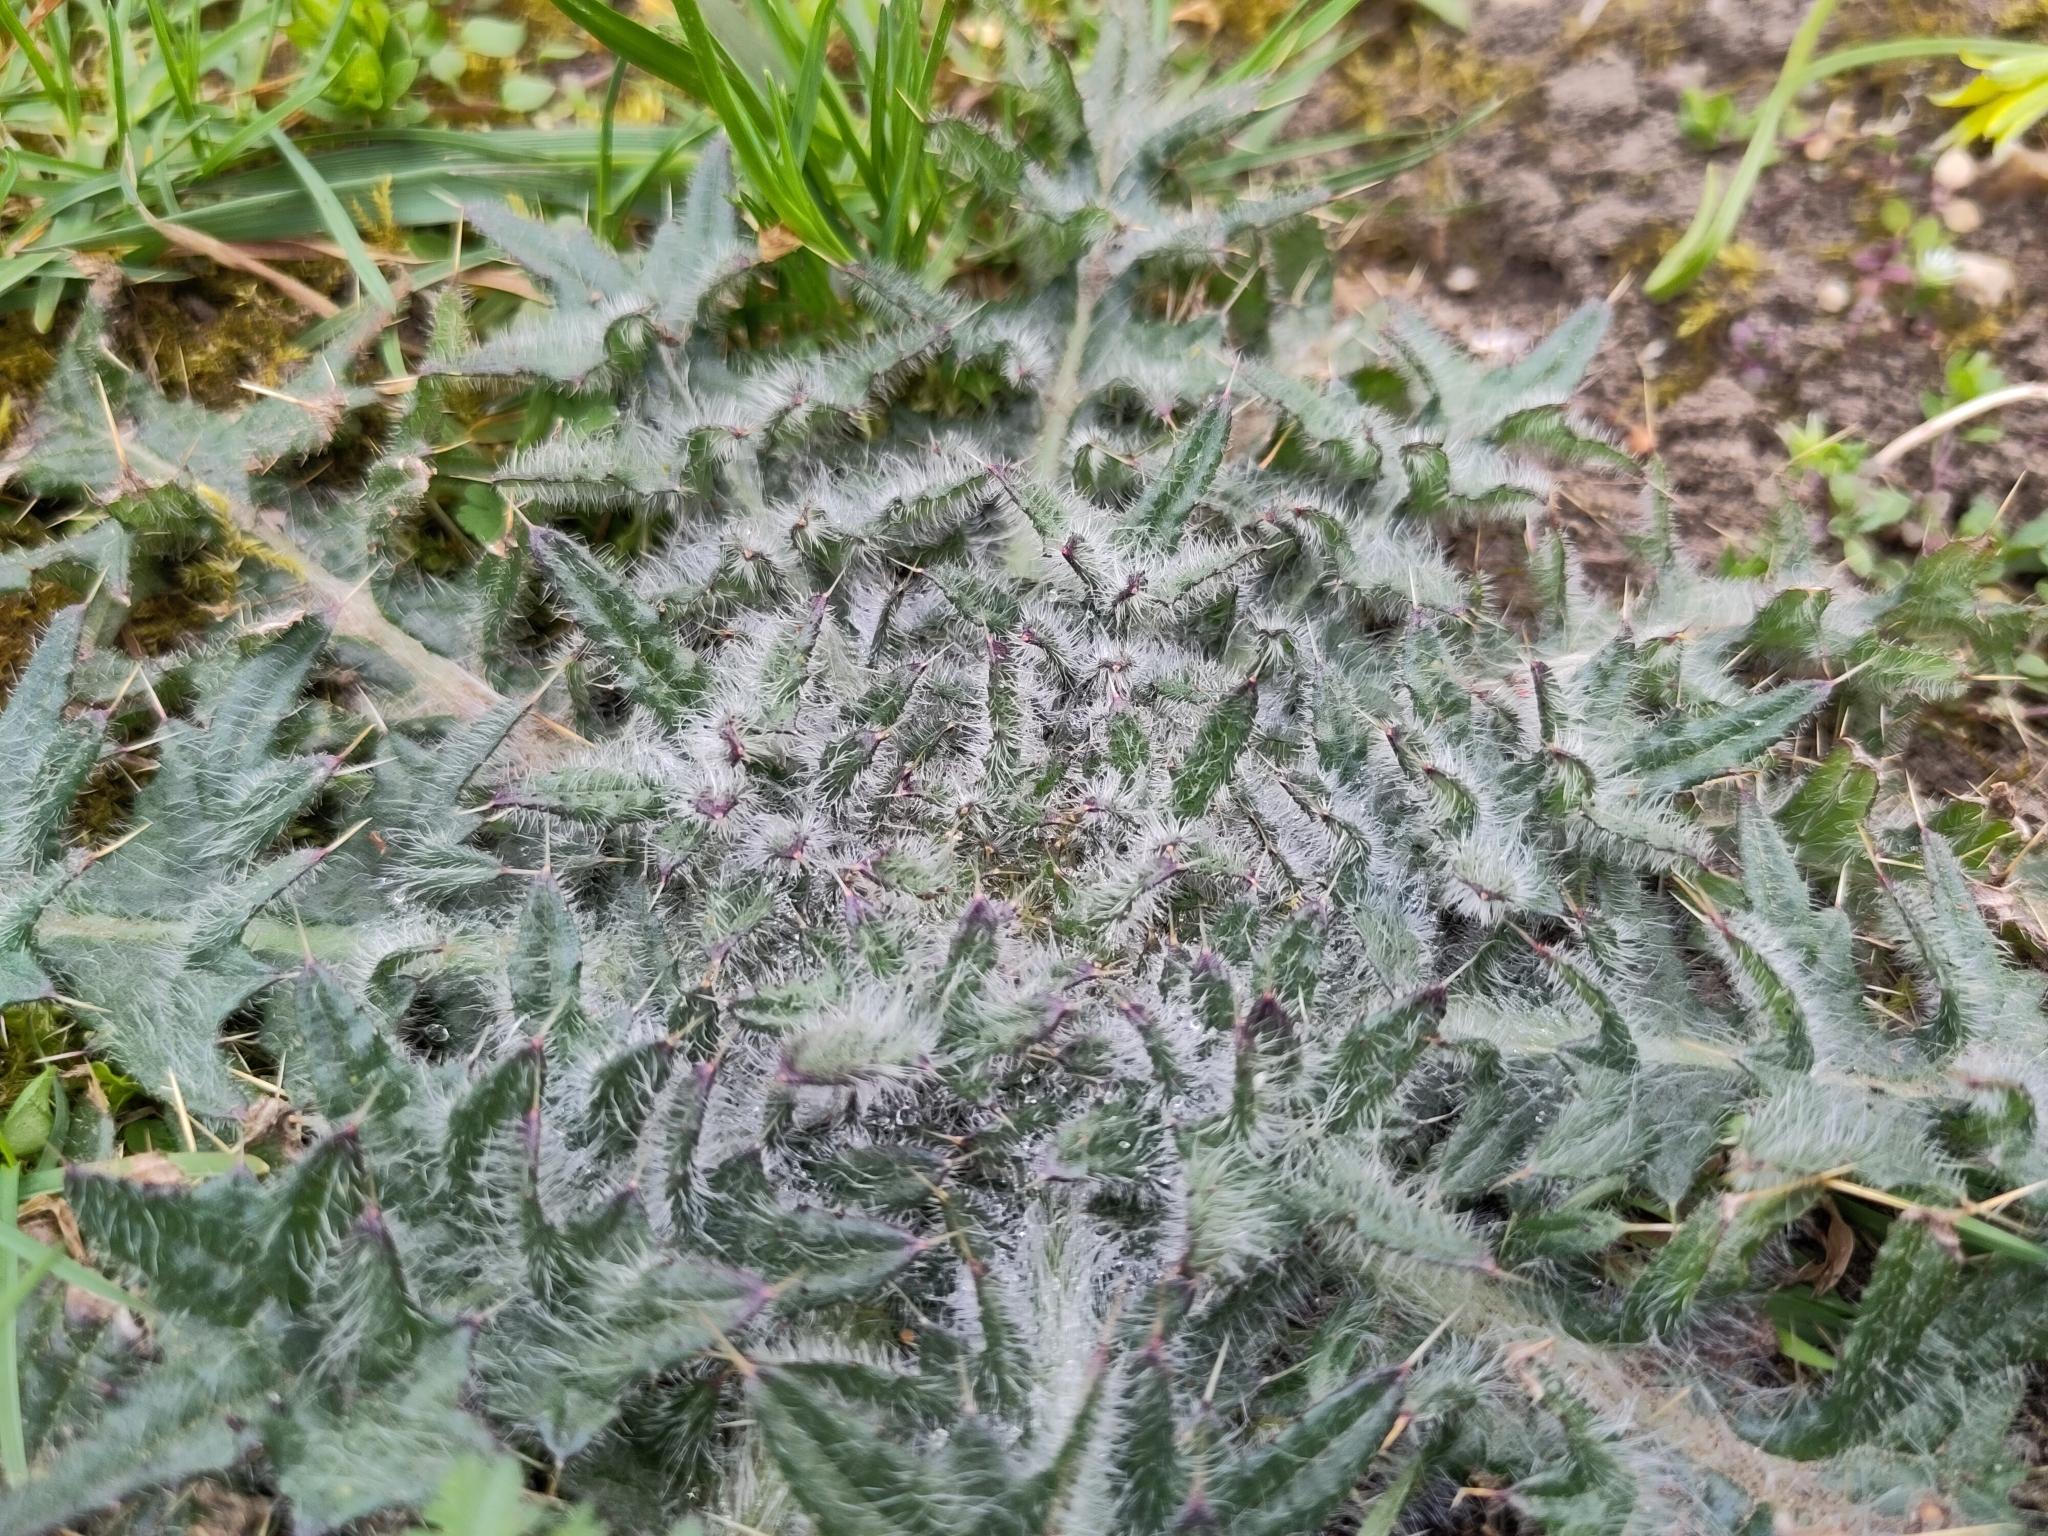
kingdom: Plantae
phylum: Tracheophyta
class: Magnoliopsida
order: Asterales
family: Asteraceae
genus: Cirsium
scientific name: Cirsium vulgare
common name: Bull thistle
